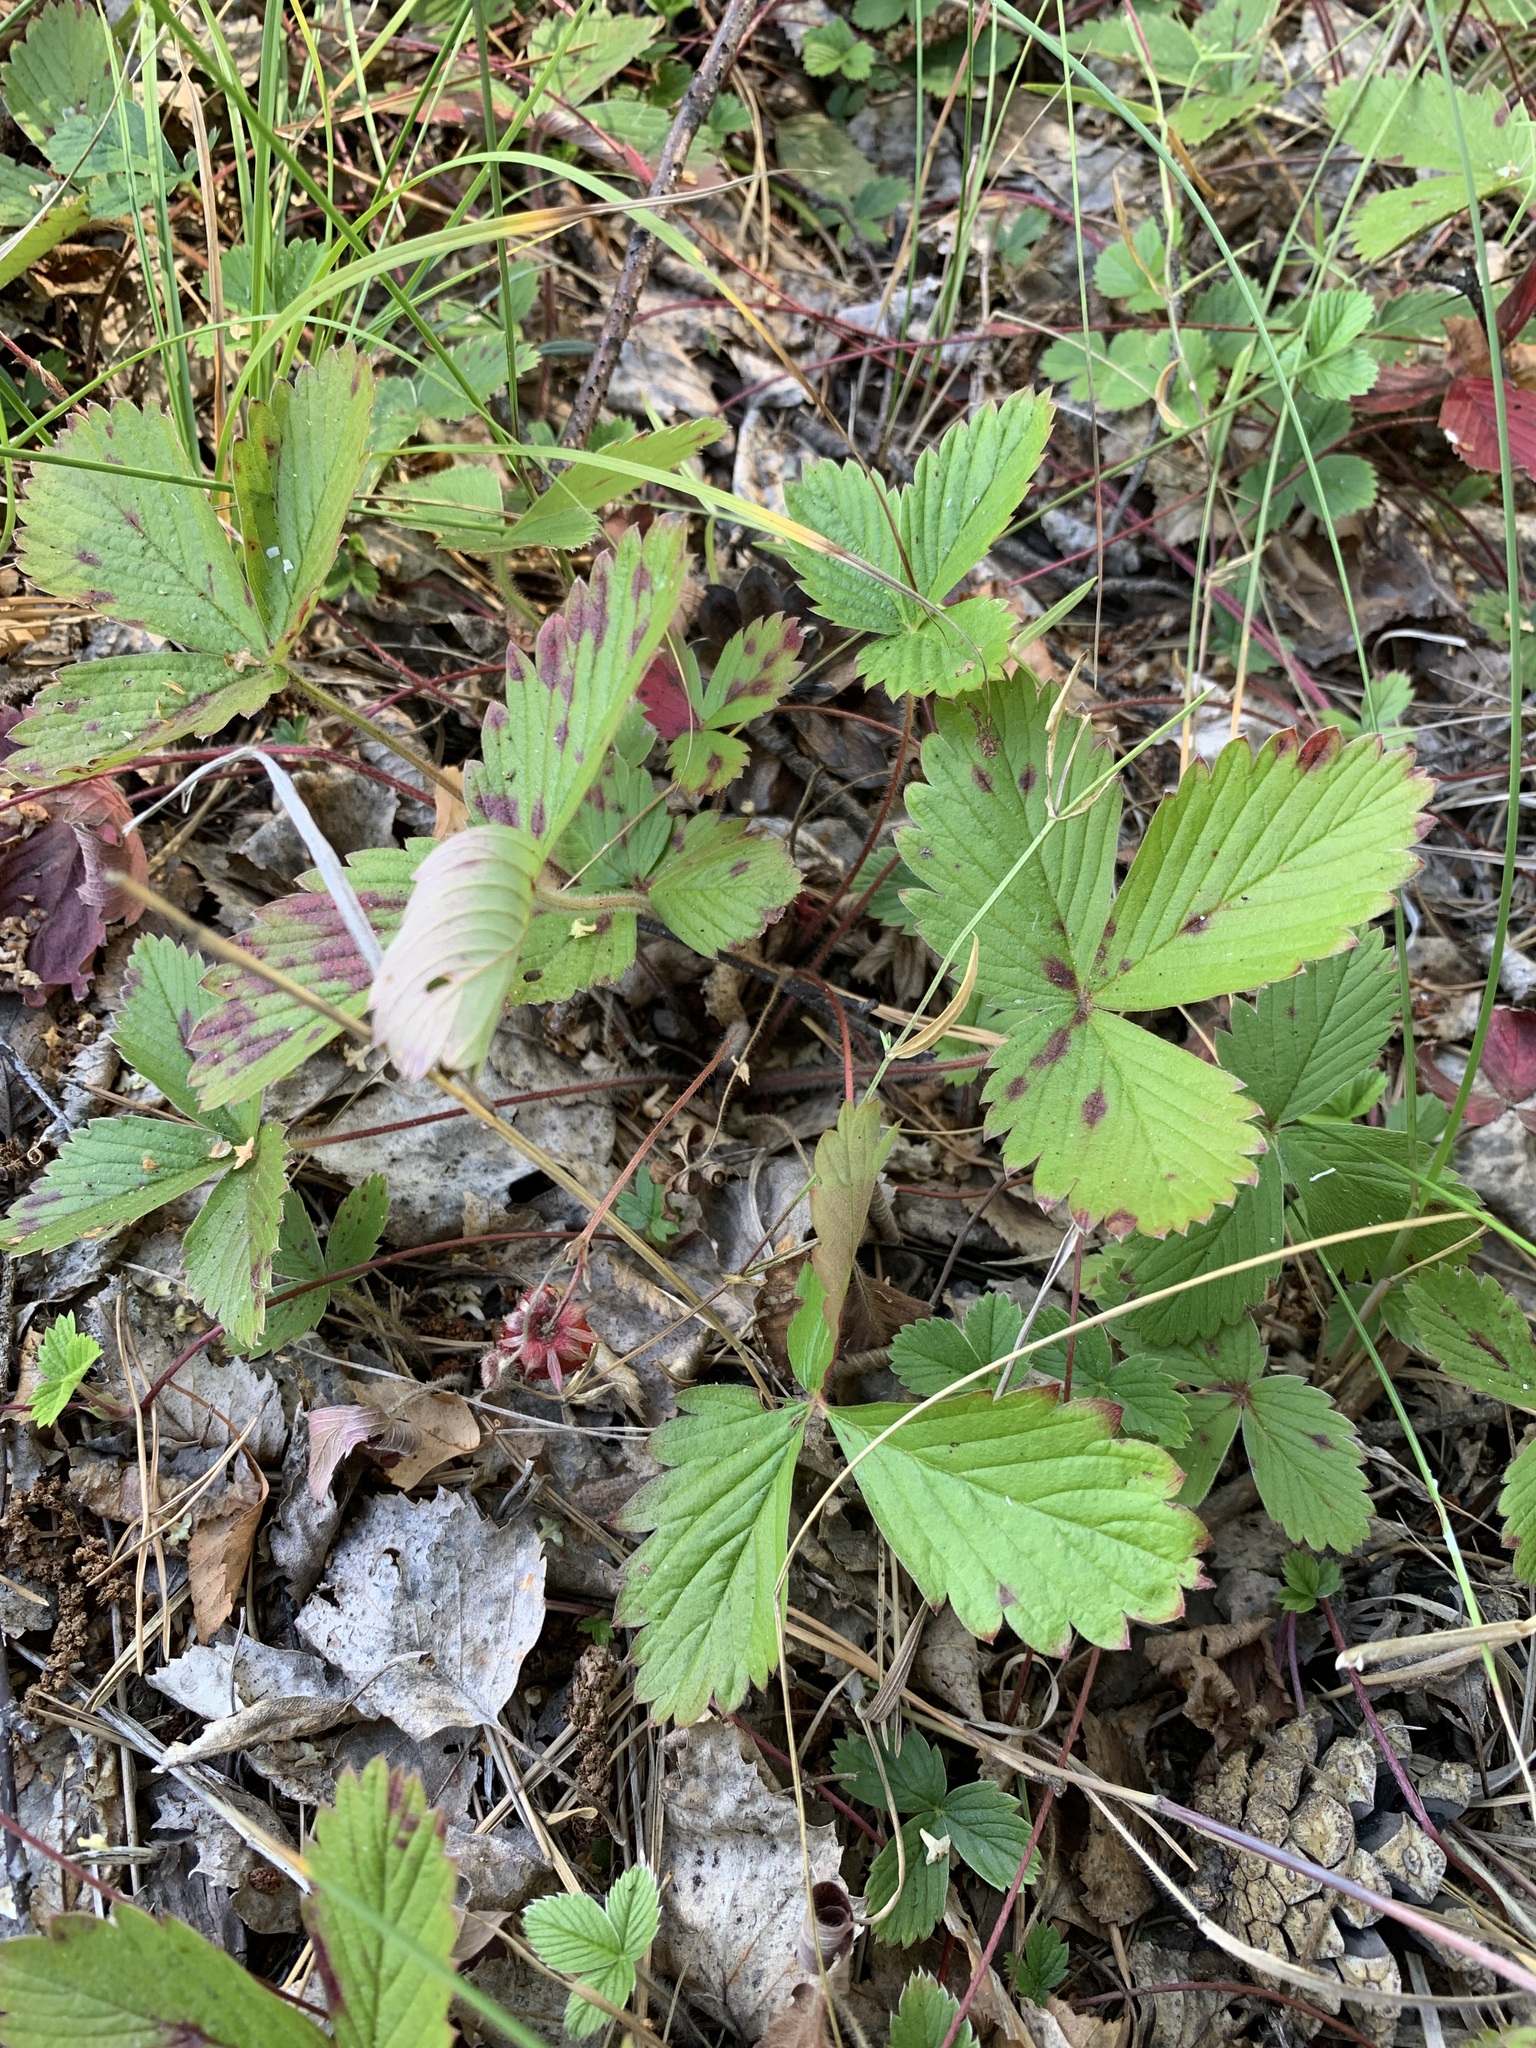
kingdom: Plantae
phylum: Tracheophyta
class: Magnoliopsida
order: Rosales
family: Rosaceae
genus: Fragaria
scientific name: Fragaria viridis
